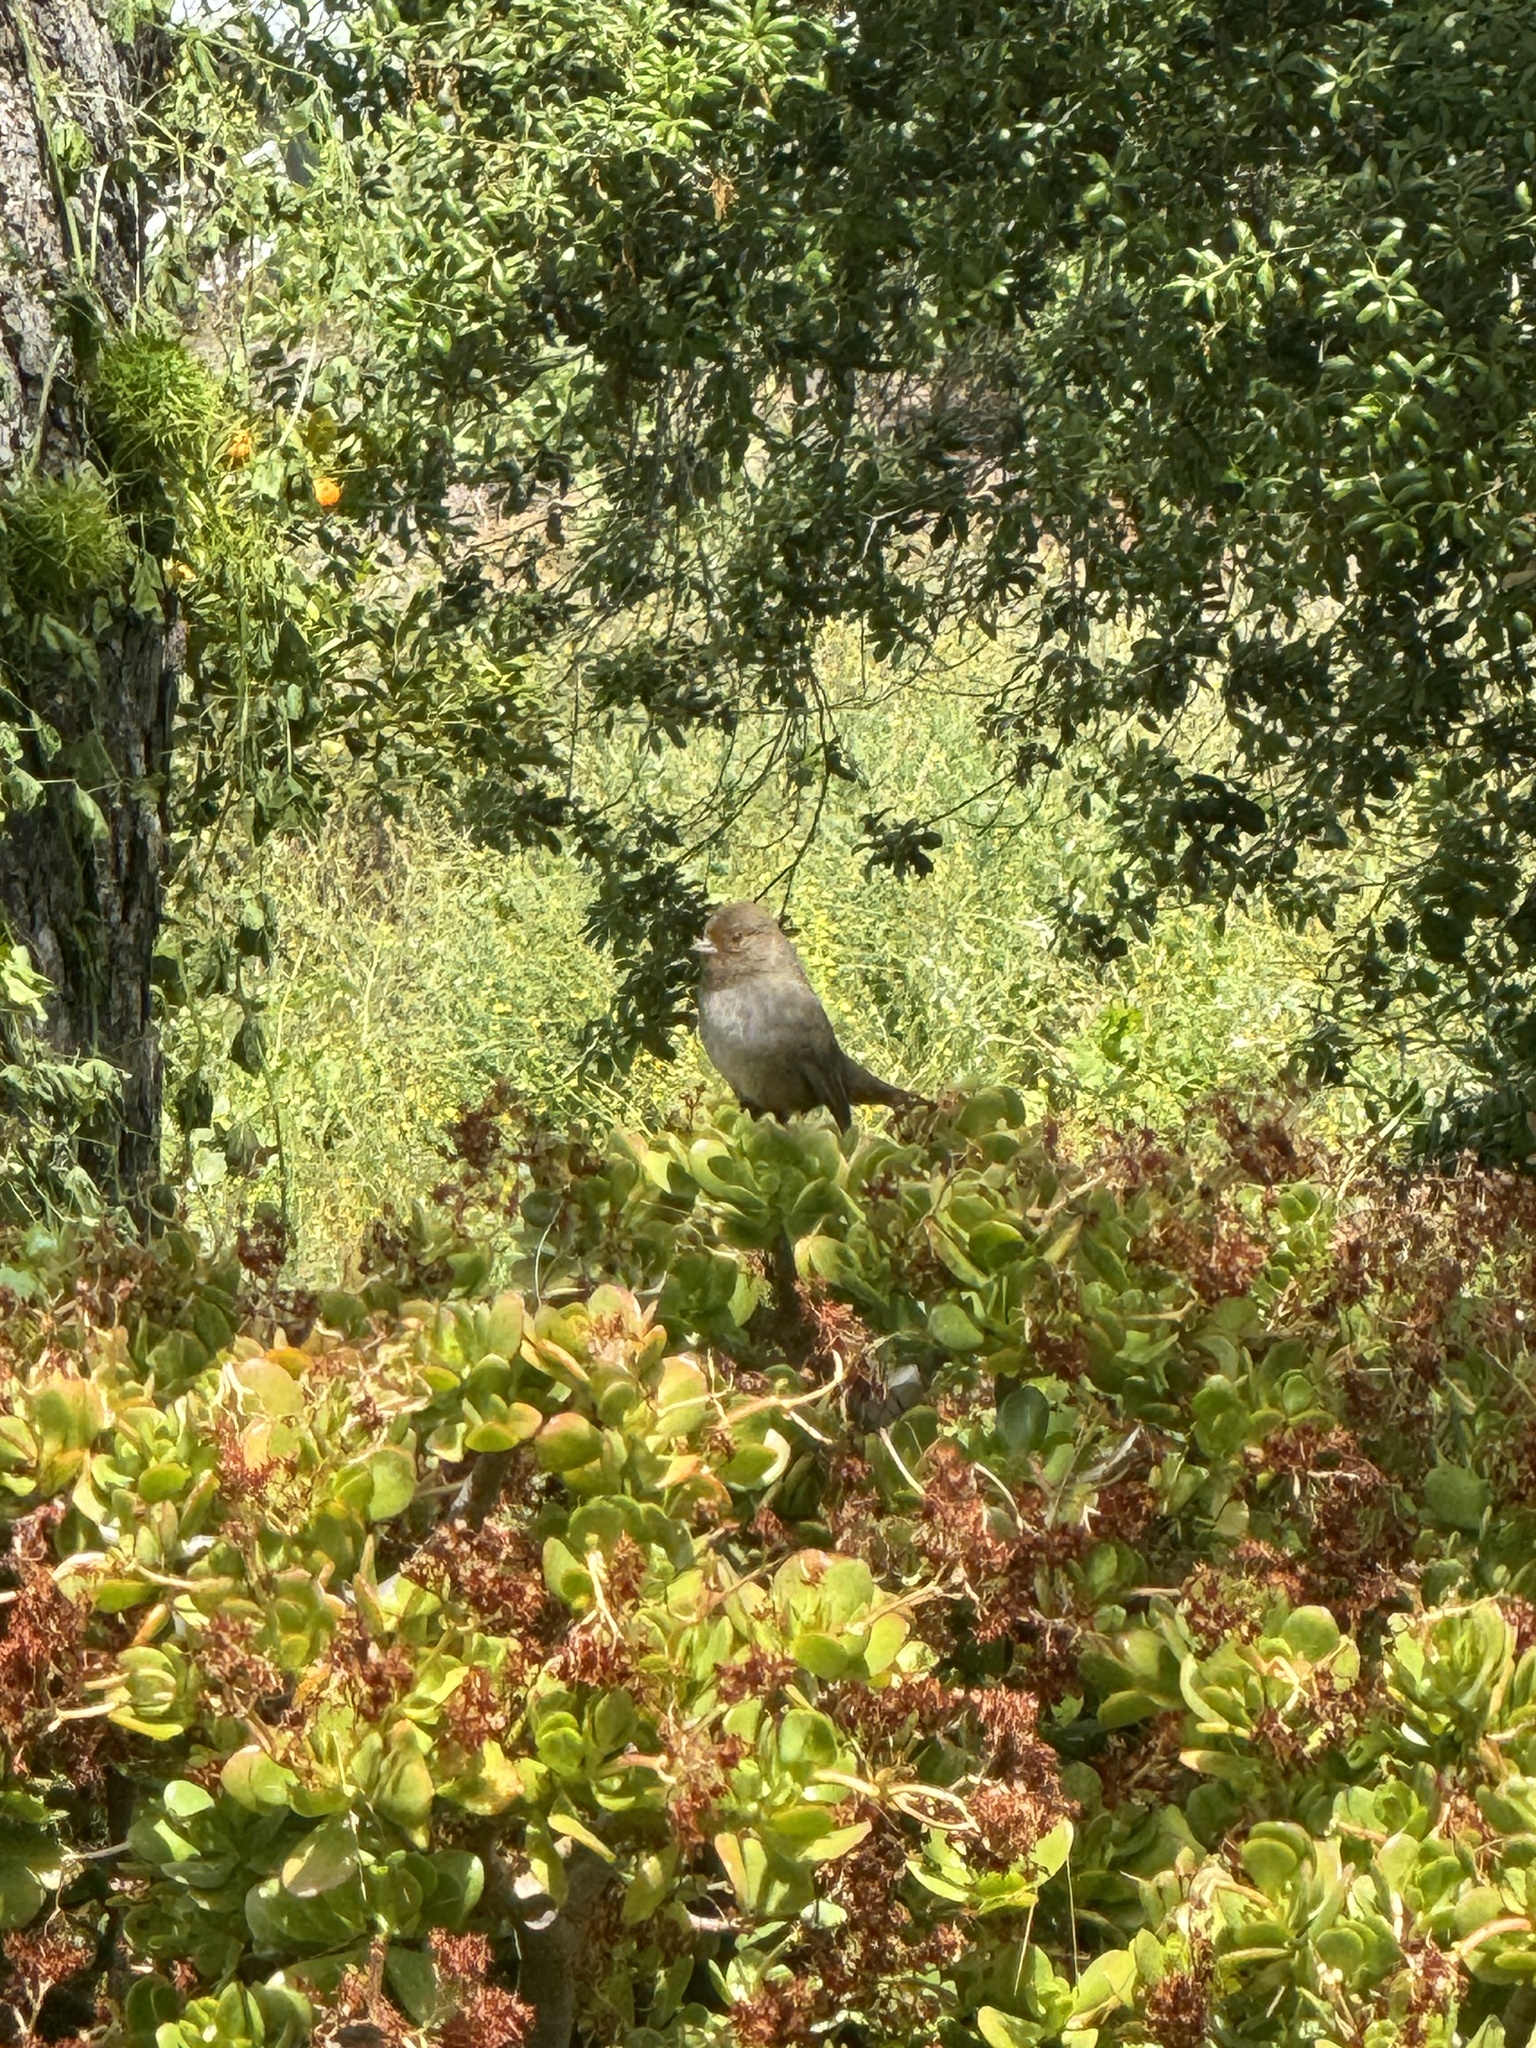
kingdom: Animalia
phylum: Chordata
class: Aves
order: Passeriformes
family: Passerellidae
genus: Melozone
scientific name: Melozone crissalis
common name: California towhee
